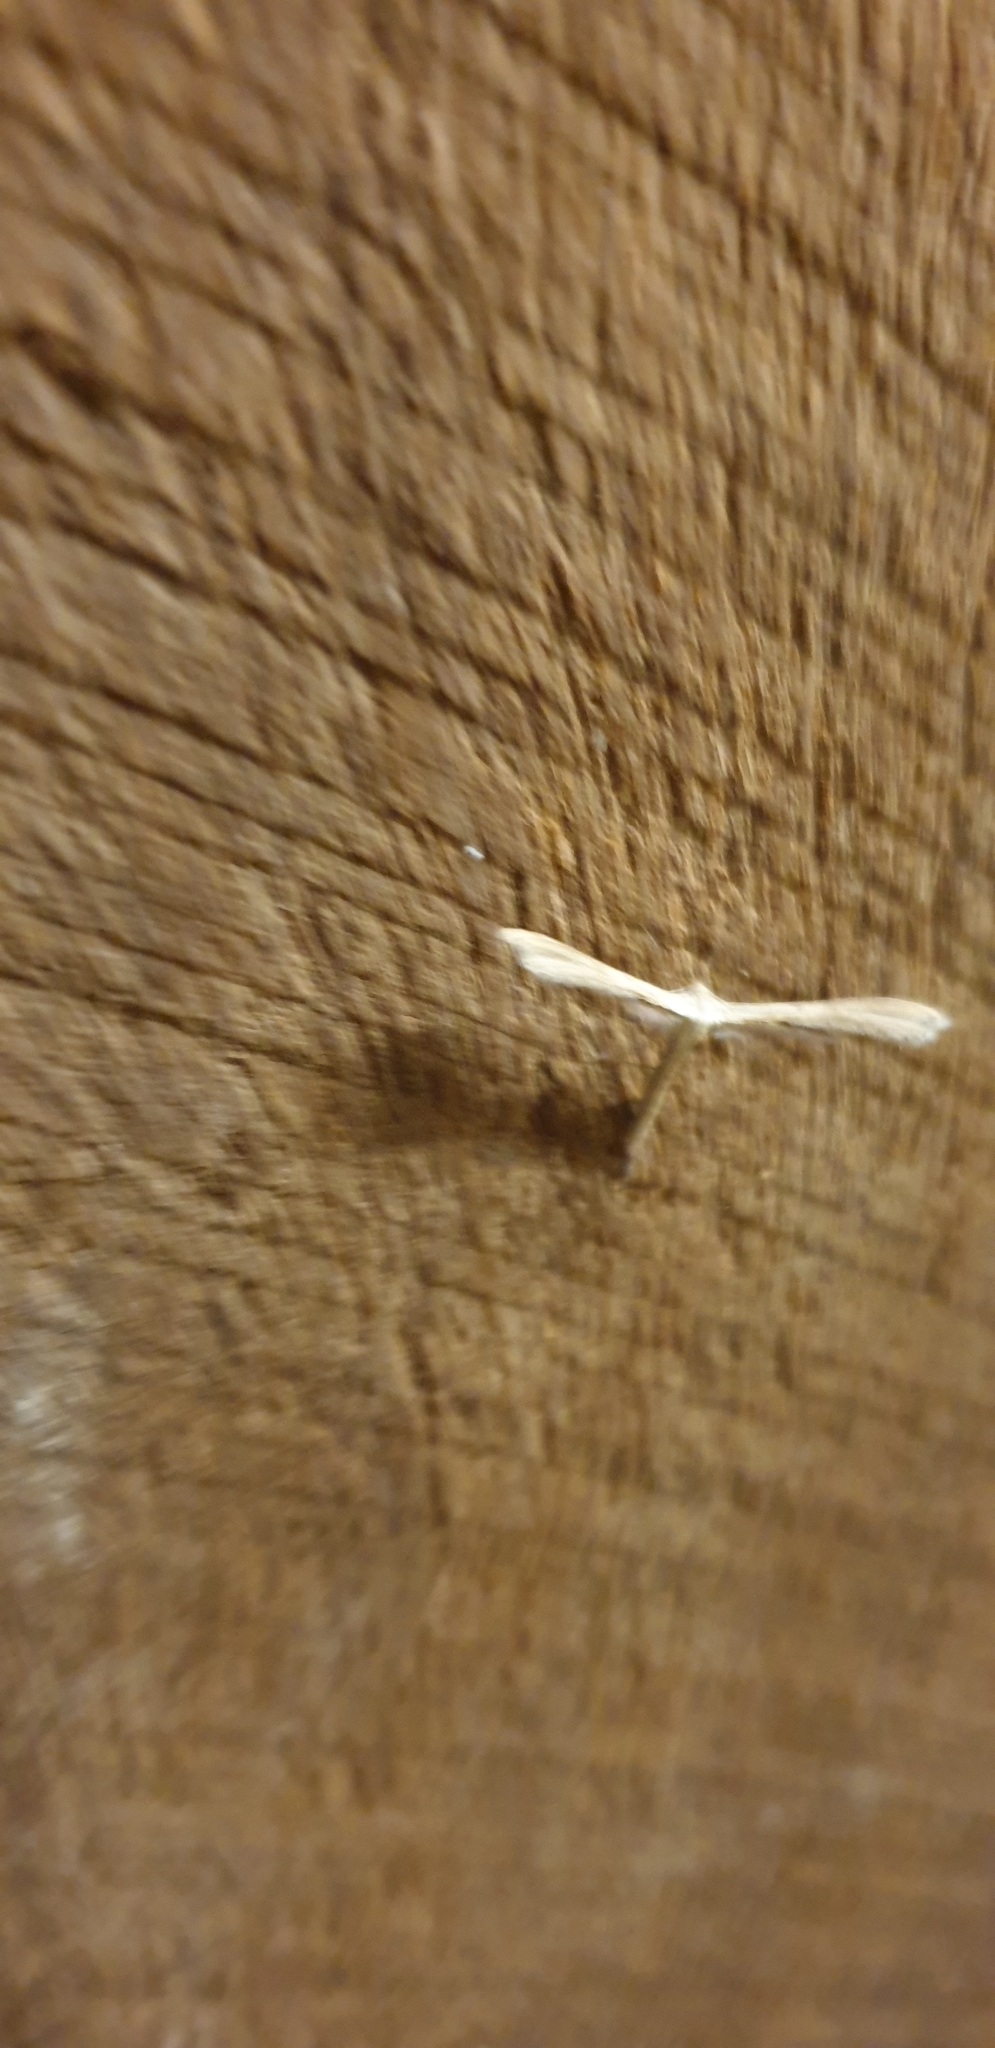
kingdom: Animalia
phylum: Arthropoda
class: Insecta
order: Lepidoptera
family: Pterophoridae
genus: Stenoptilia
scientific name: Stenoptilia zophodactylus
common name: Dowdy plume
